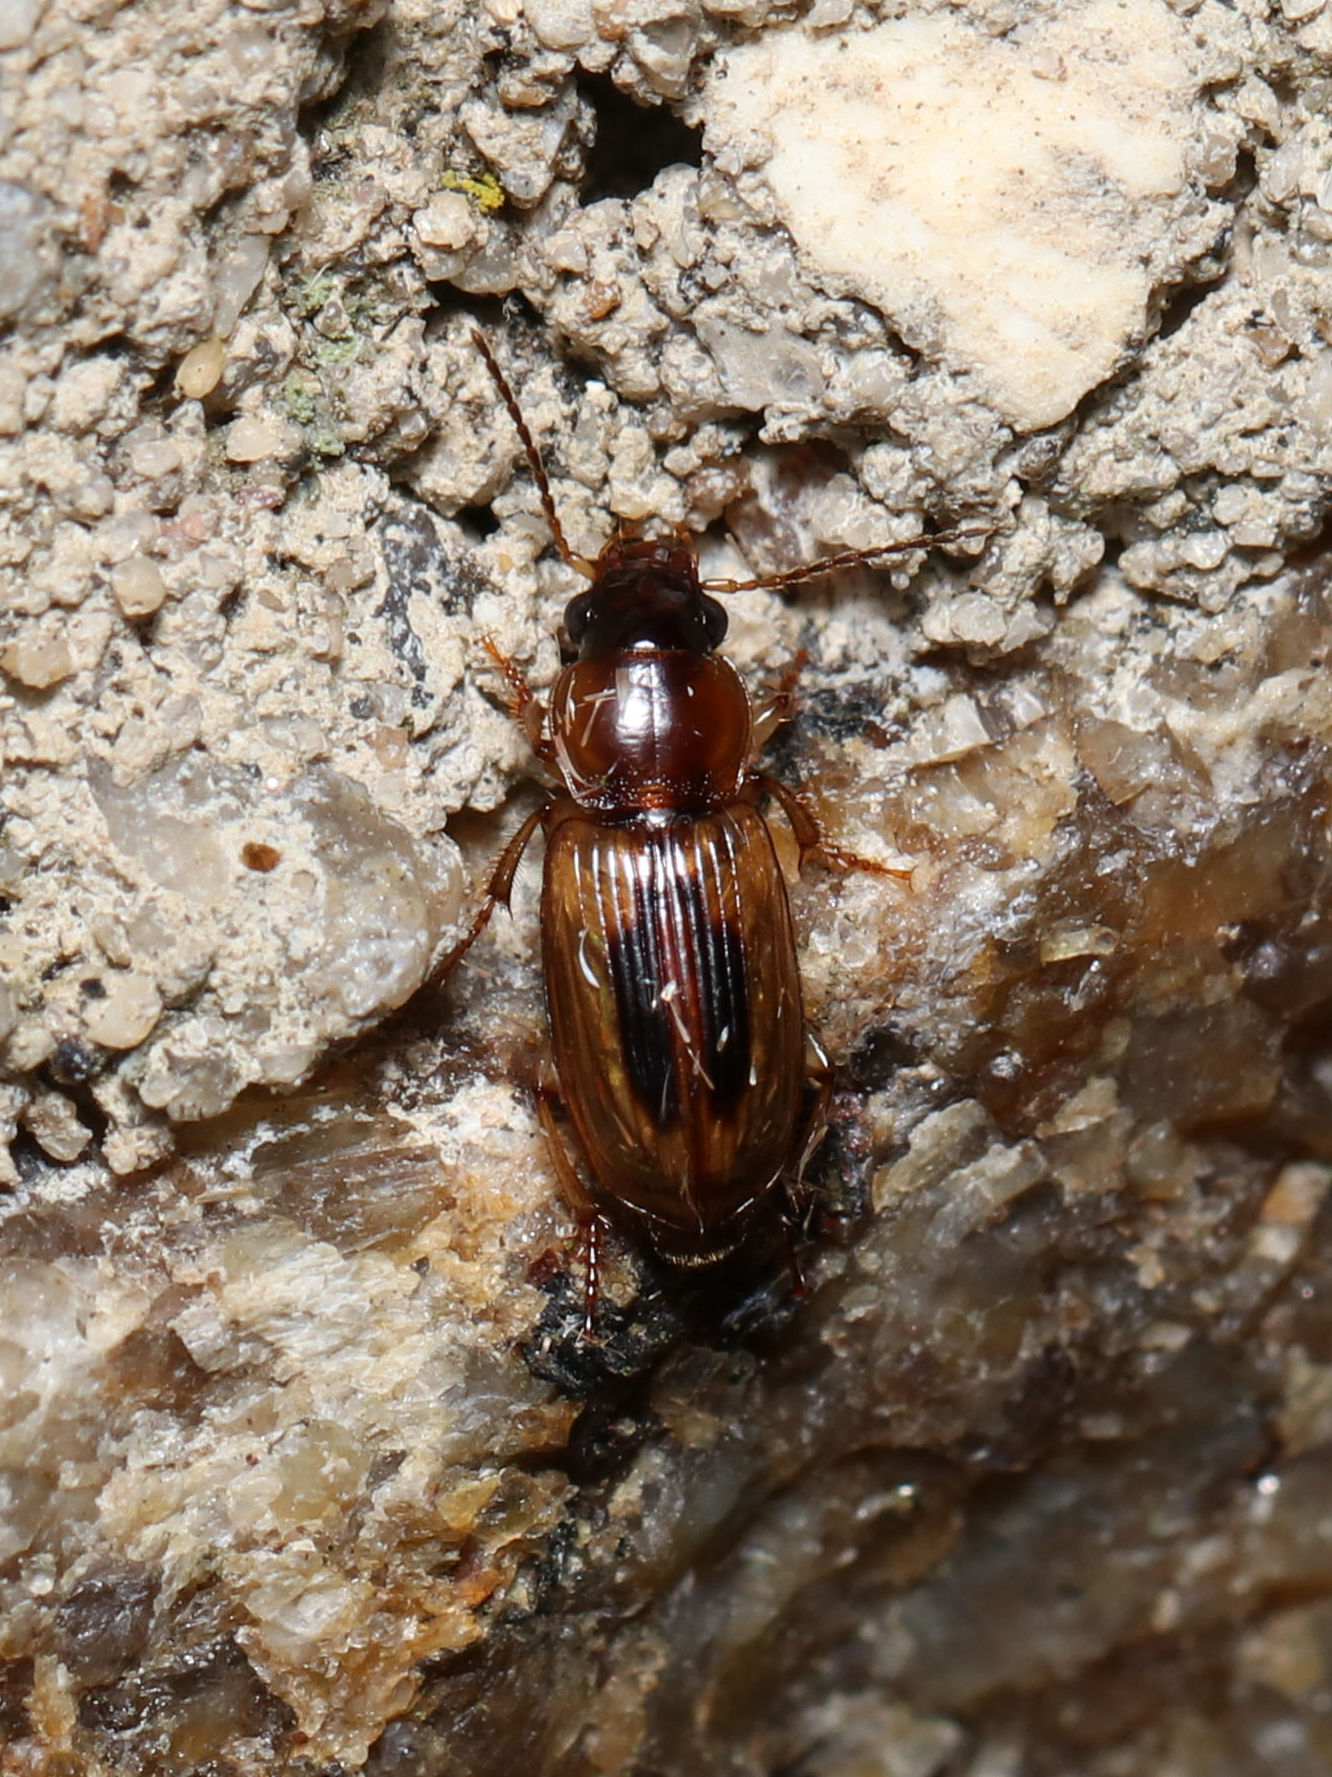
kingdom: Animalia
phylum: Arthropoda
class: Insecta
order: Coleoptera
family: Carabidae
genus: Stenolophus
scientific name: Stenolophus lecontei
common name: Leconte's seedcorn beetle
